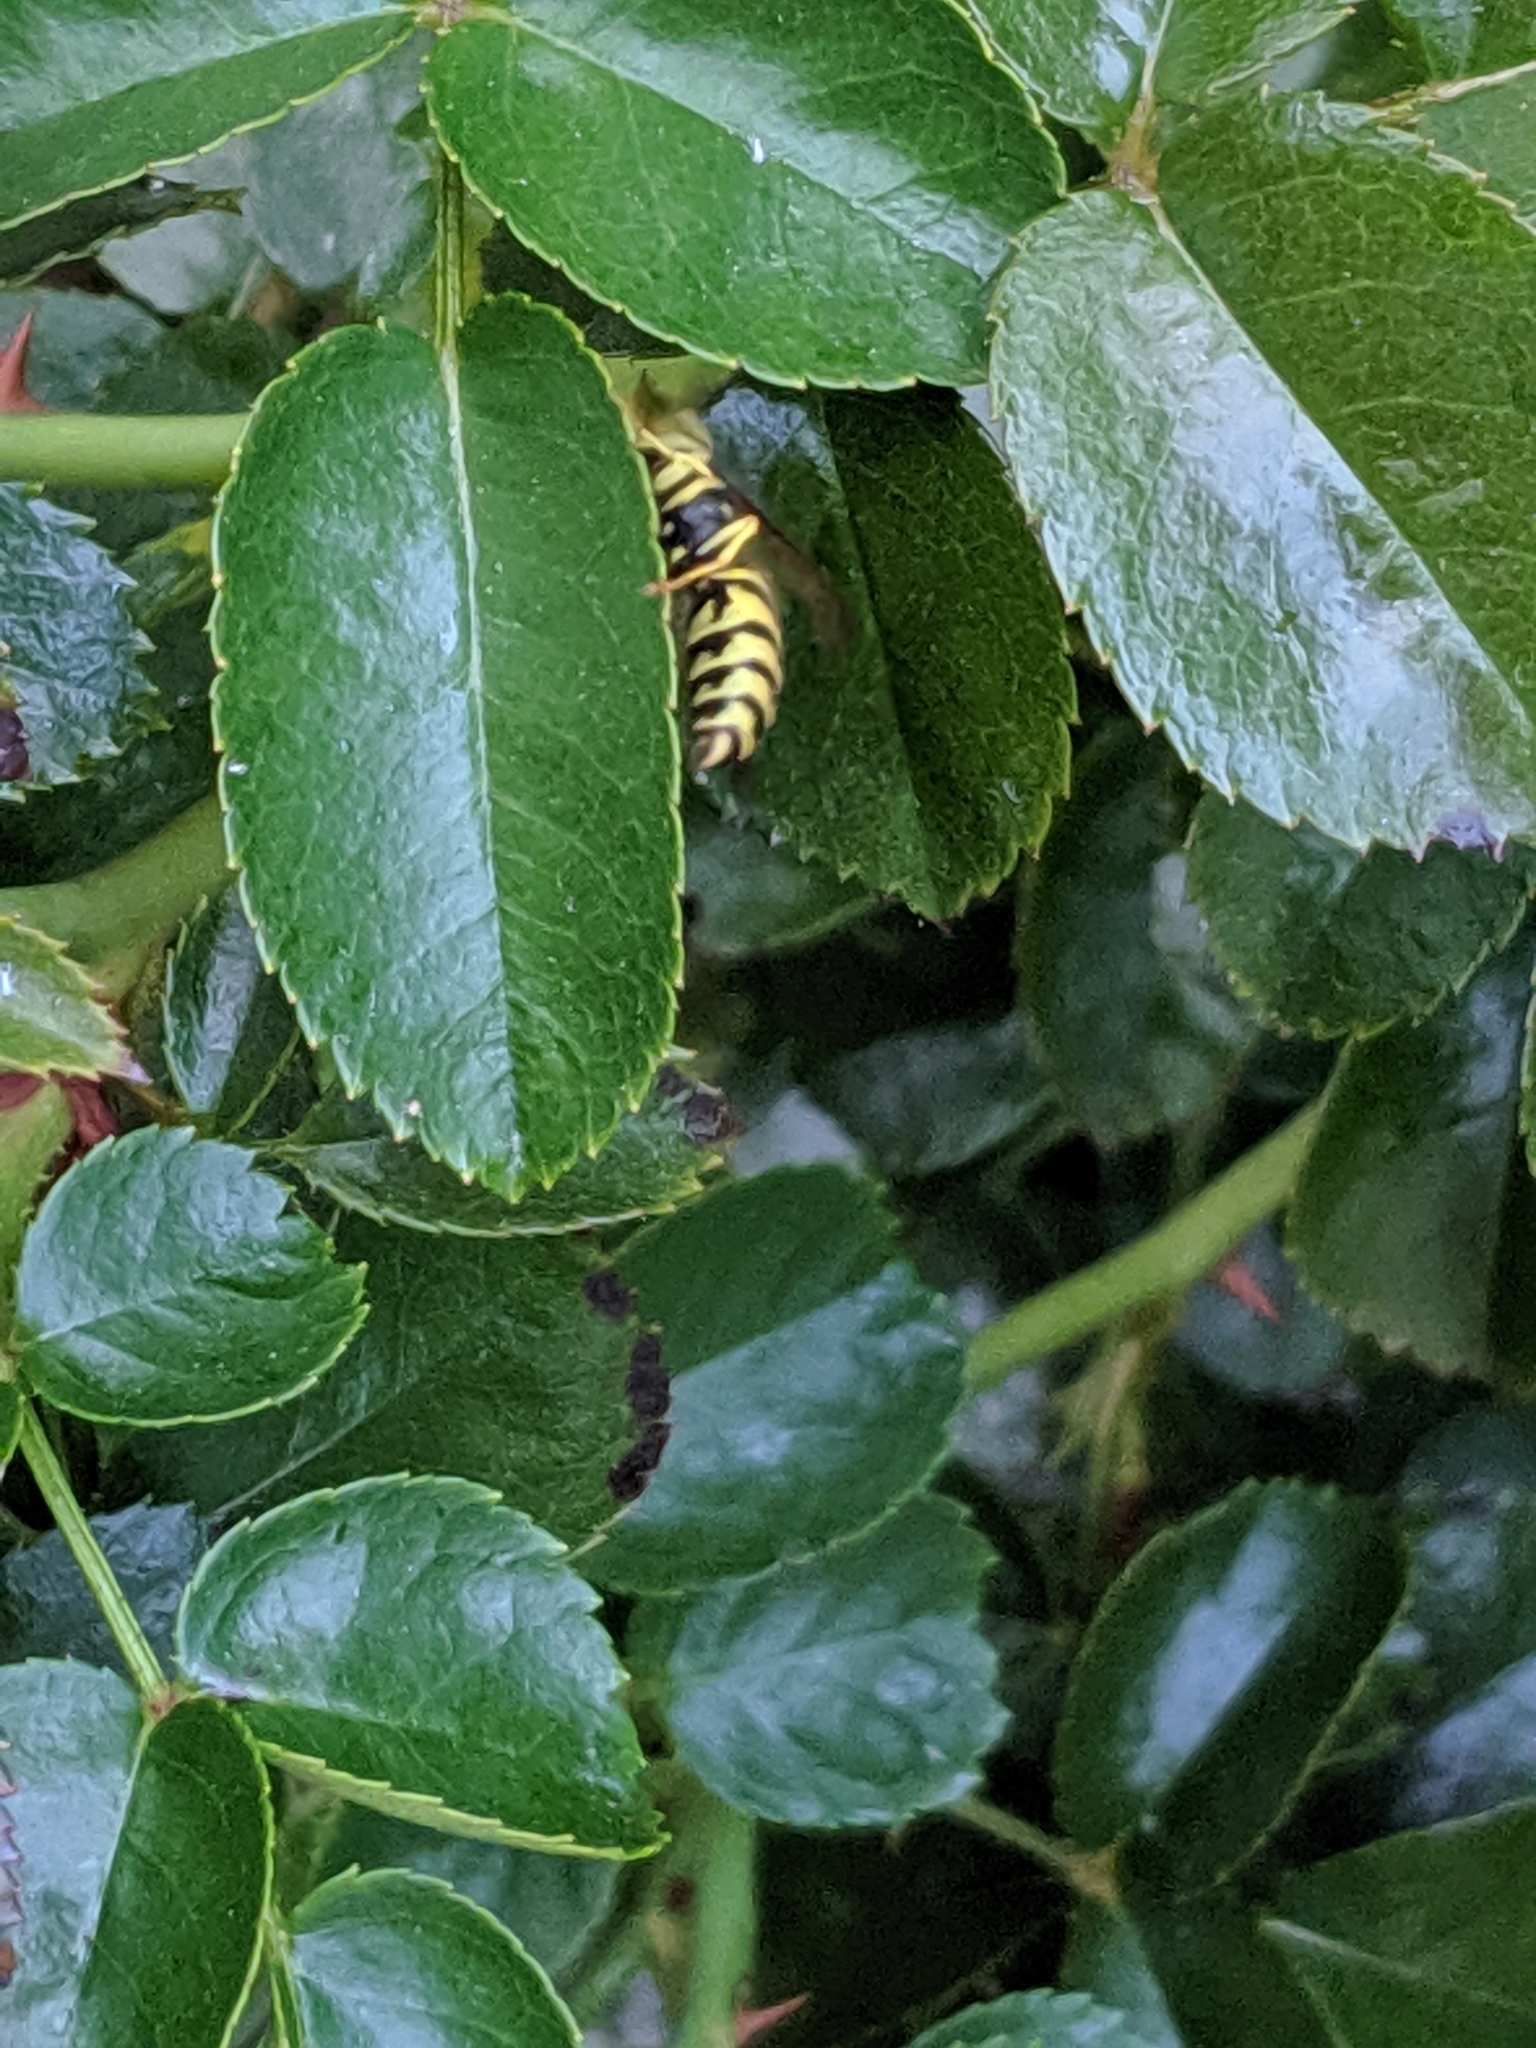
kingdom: Animalia
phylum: Arthropoda
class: Insecta
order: Hymenoptera
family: Vespidae
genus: Vespula
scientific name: Vespula maculifrons
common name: Eastern yellowjacket
